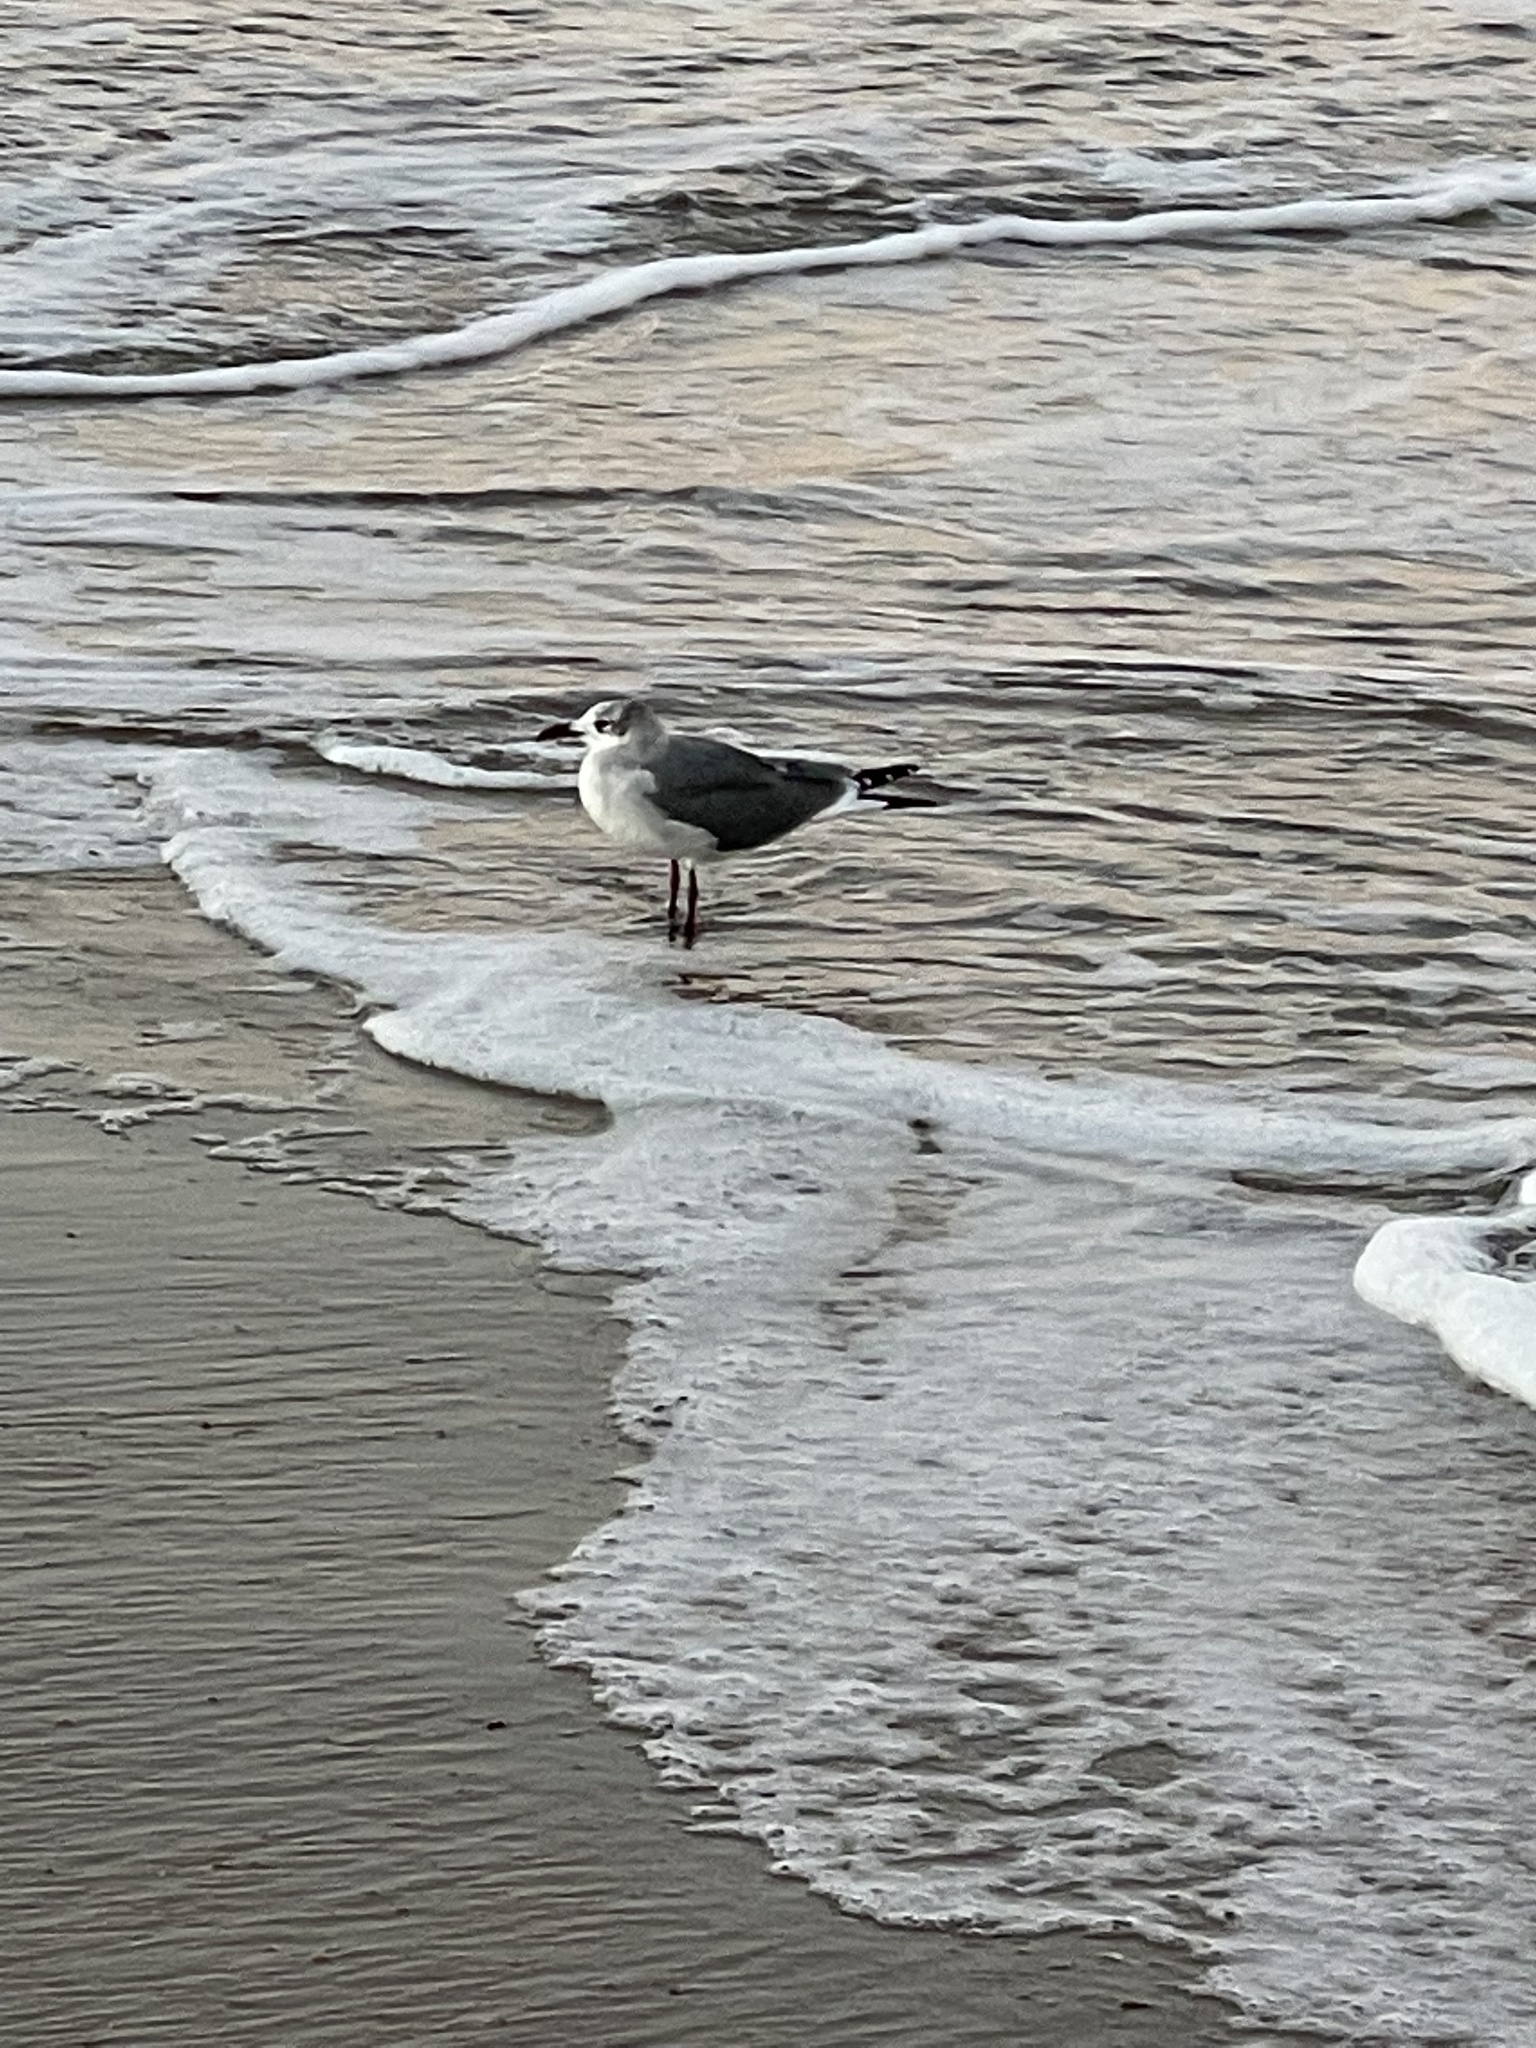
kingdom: Animalia
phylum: Chordata
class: Aves
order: Charadriiformes
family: Laridae
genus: Leucophaeus
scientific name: Leucophaeus atricilla
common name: Laughing gull
